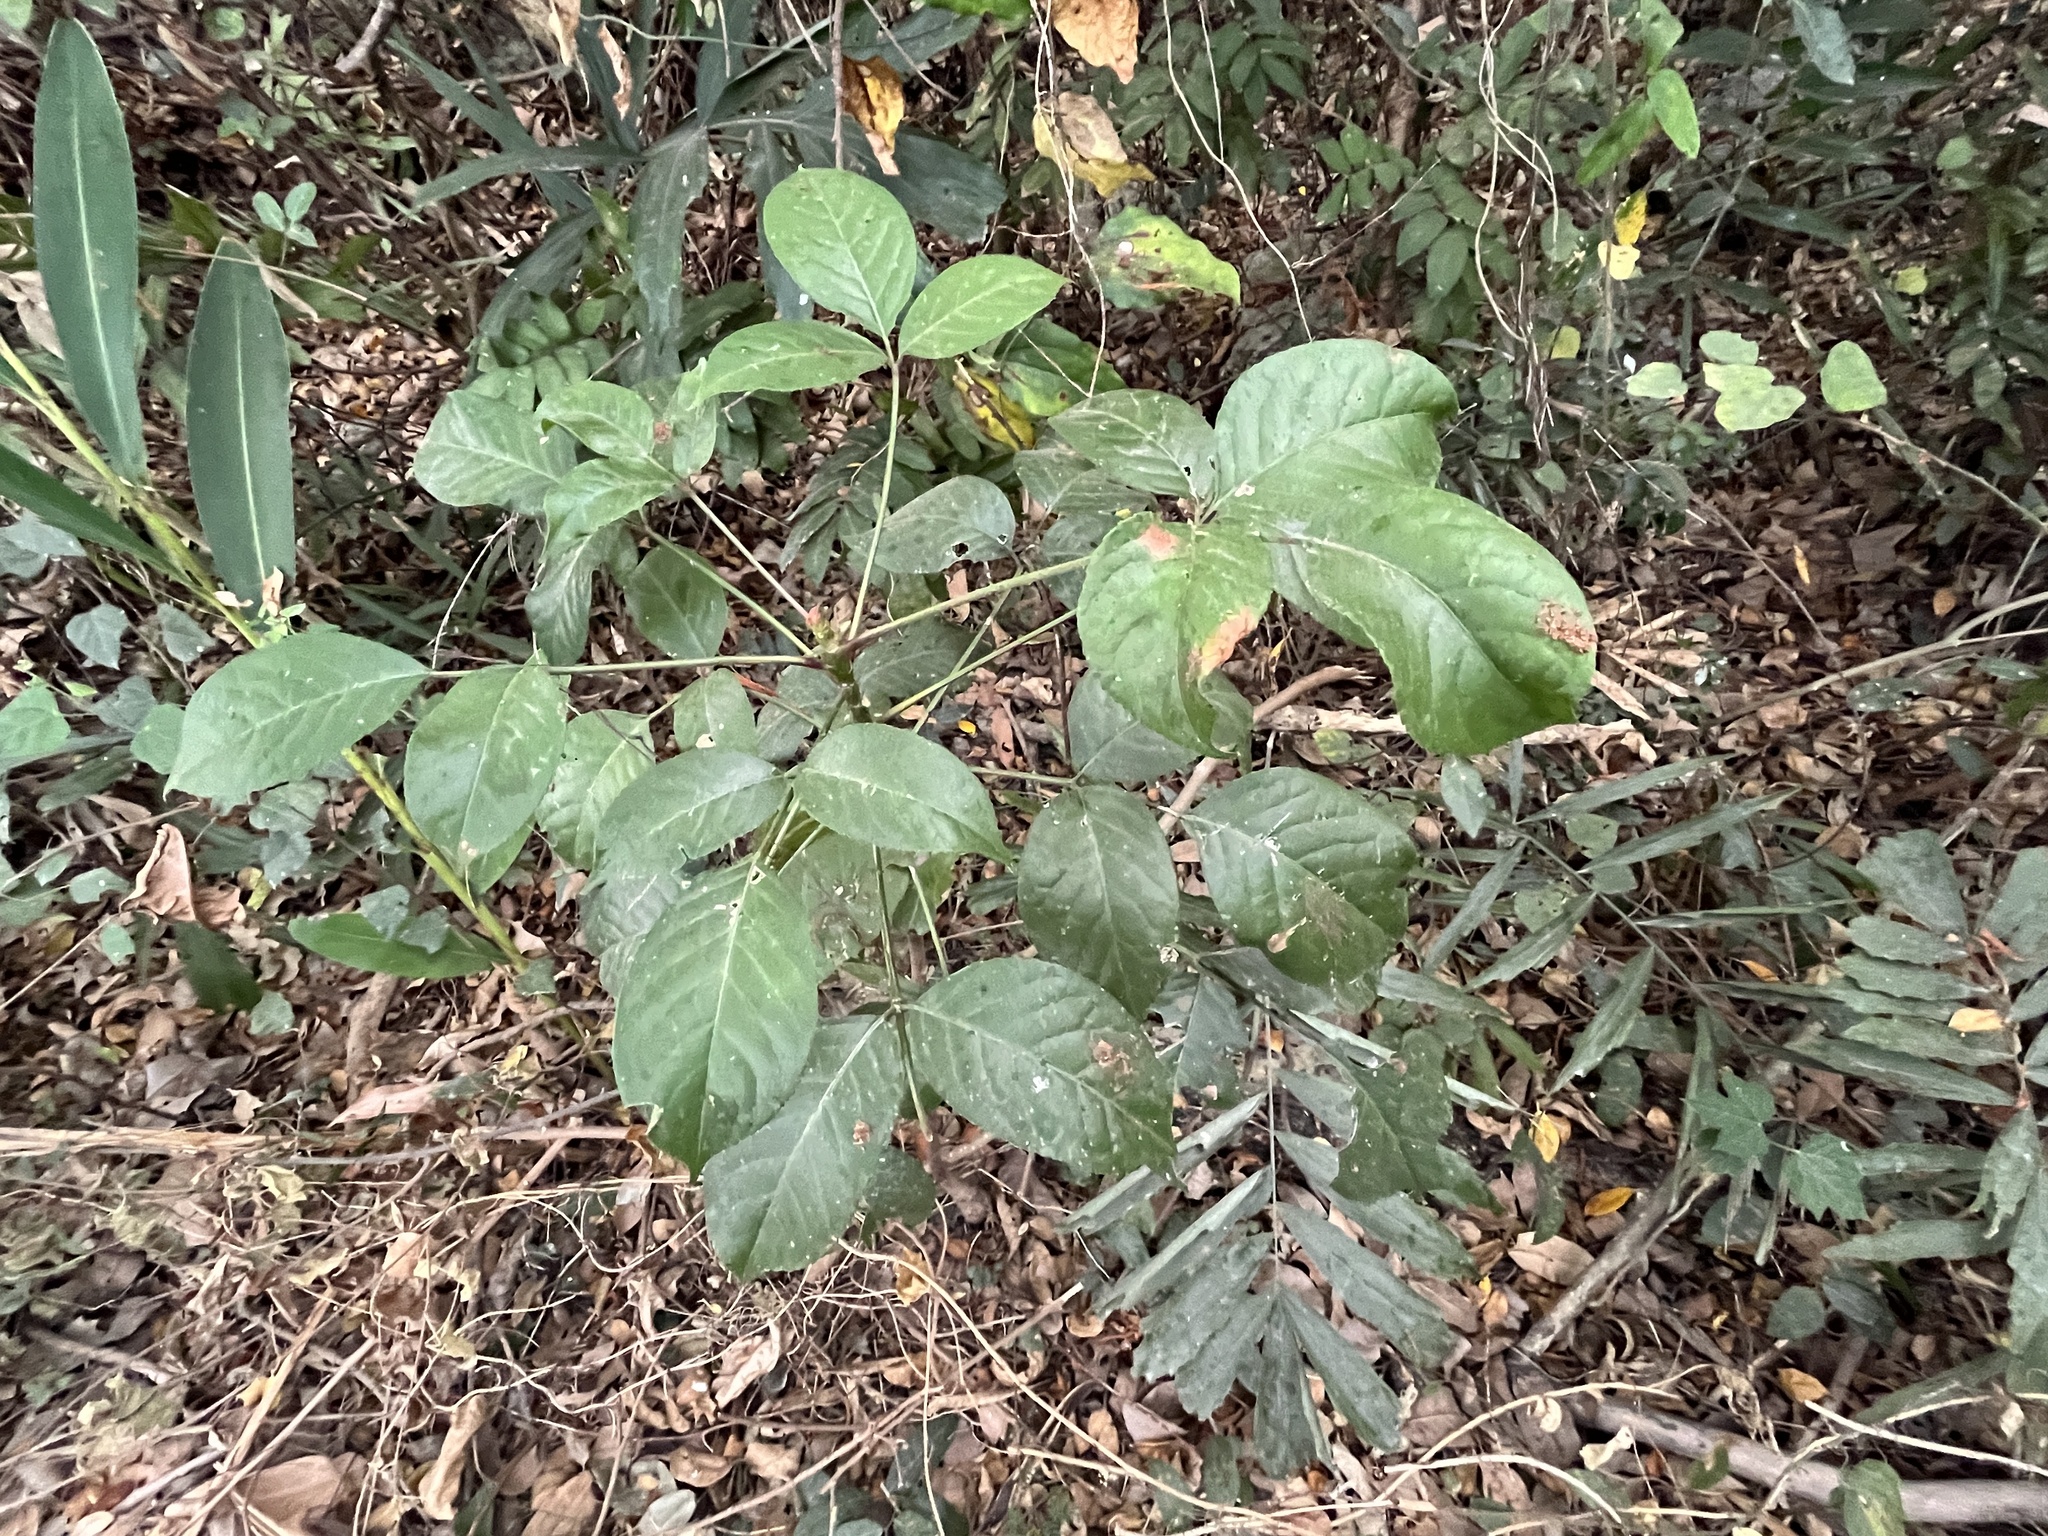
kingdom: Plantae
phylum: Tracheophyta
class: Magnoliopsida
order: Malpighiales
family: Phyllanthaceae
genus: Bischofia
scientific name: Bischofia javanica
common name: Javanese bishopwood
